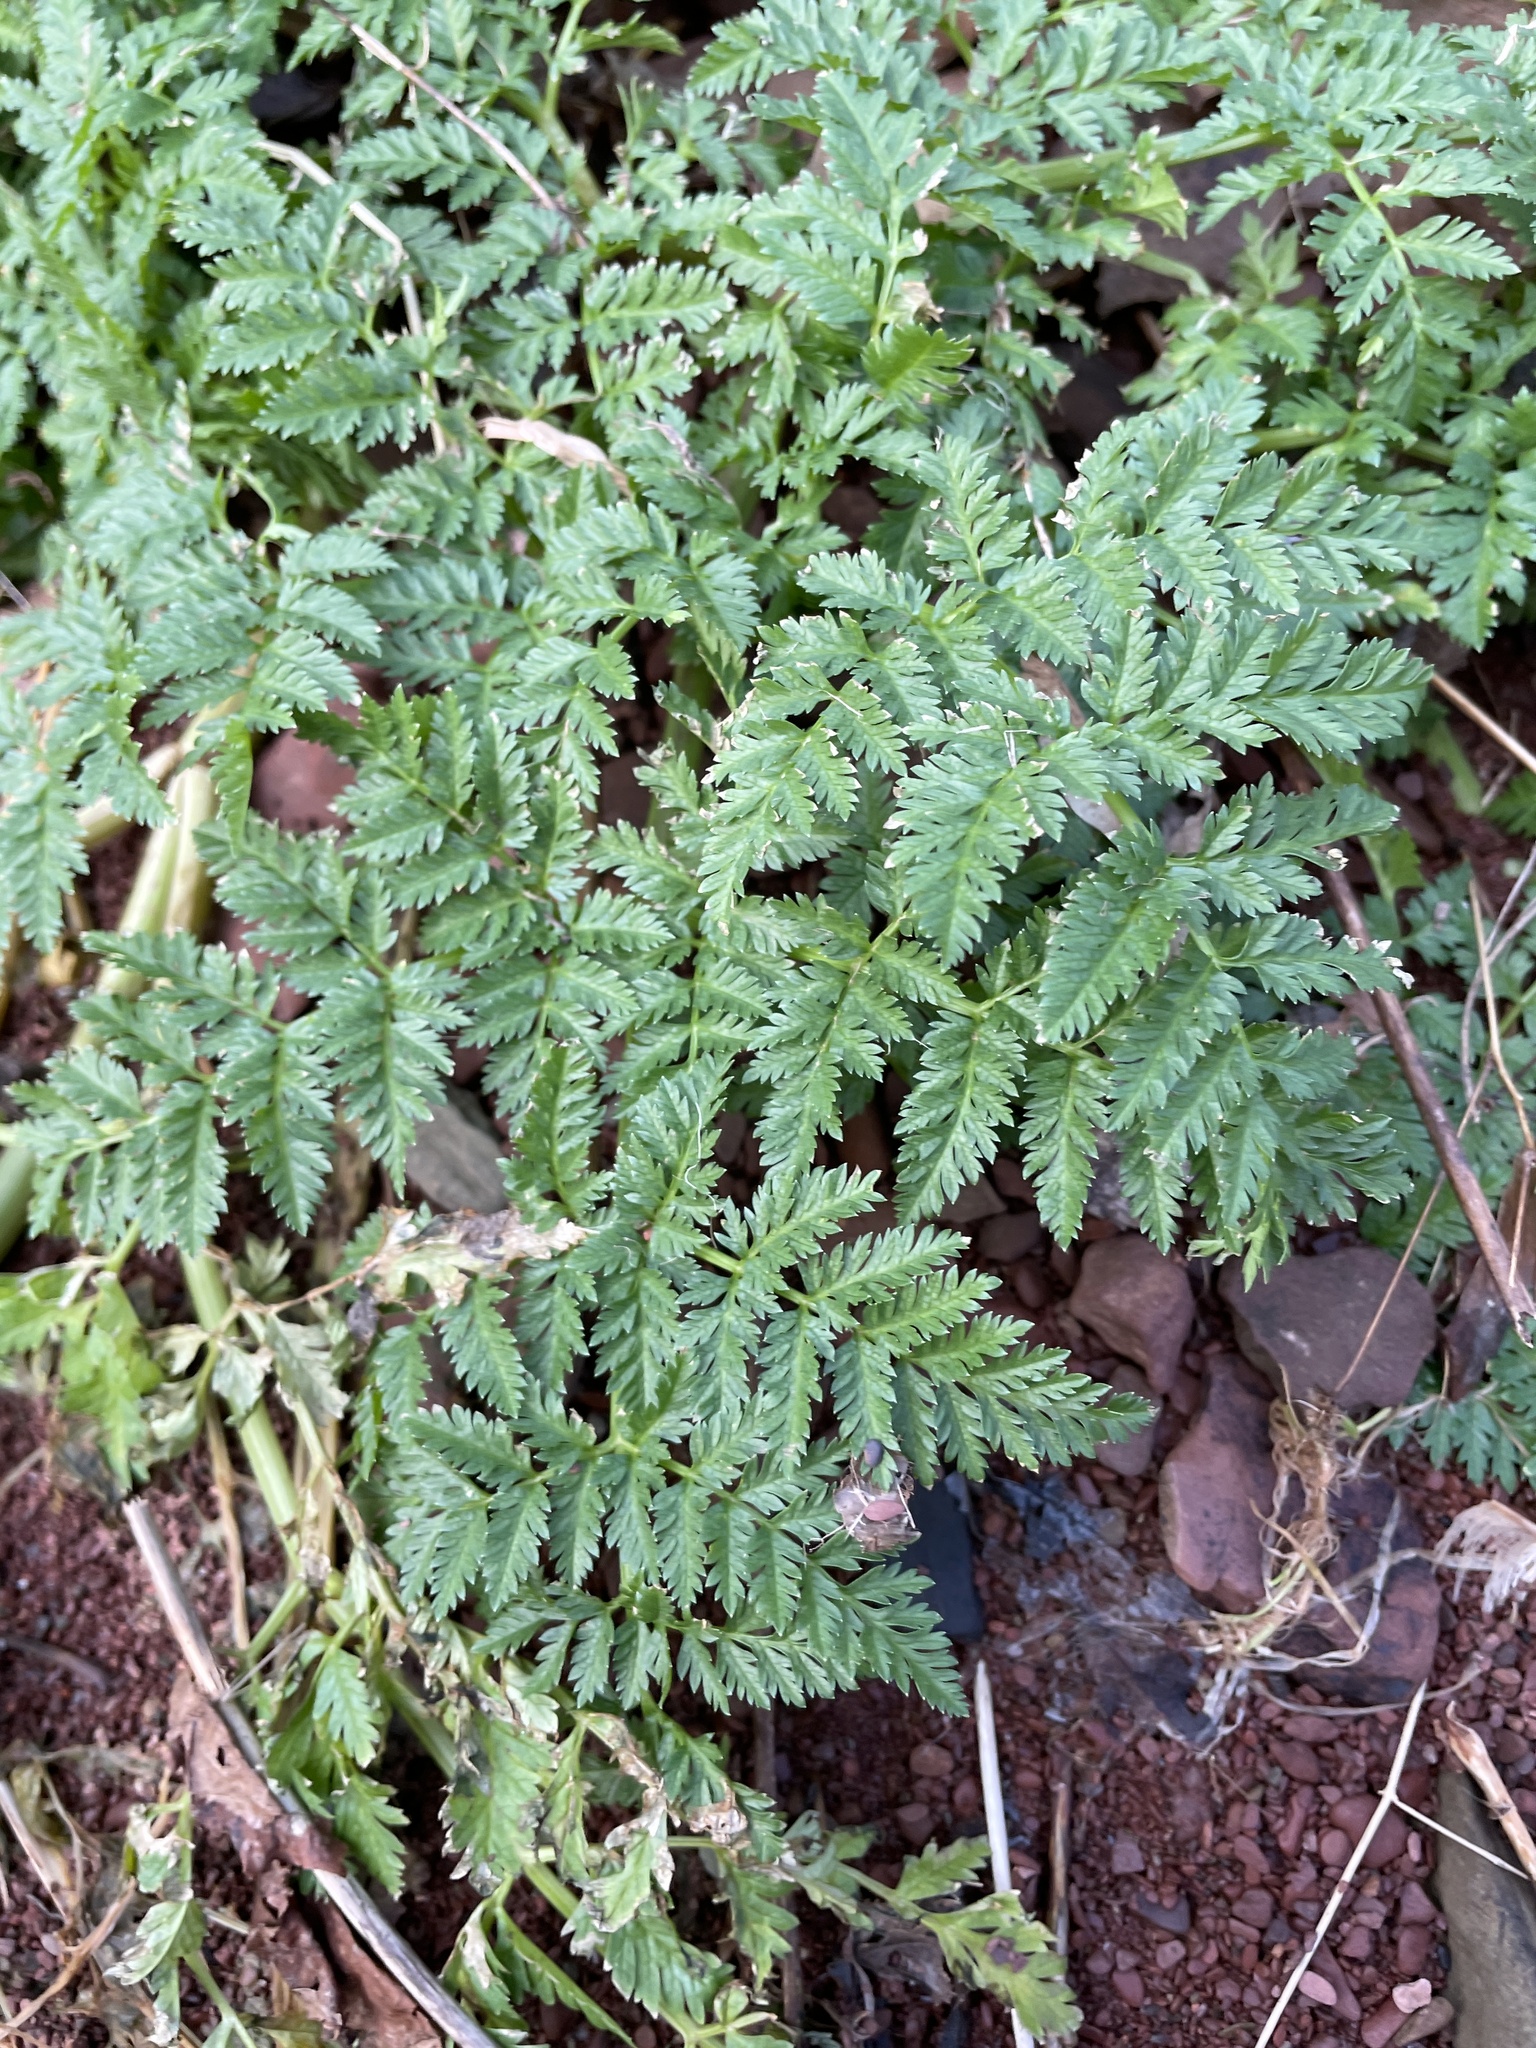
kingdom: Plantae
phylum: Tracheophyta
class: Magnoliopsida
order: Apiales
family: Apiaceae
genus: Conium
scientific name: Conium maculatum
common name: Hemlock
